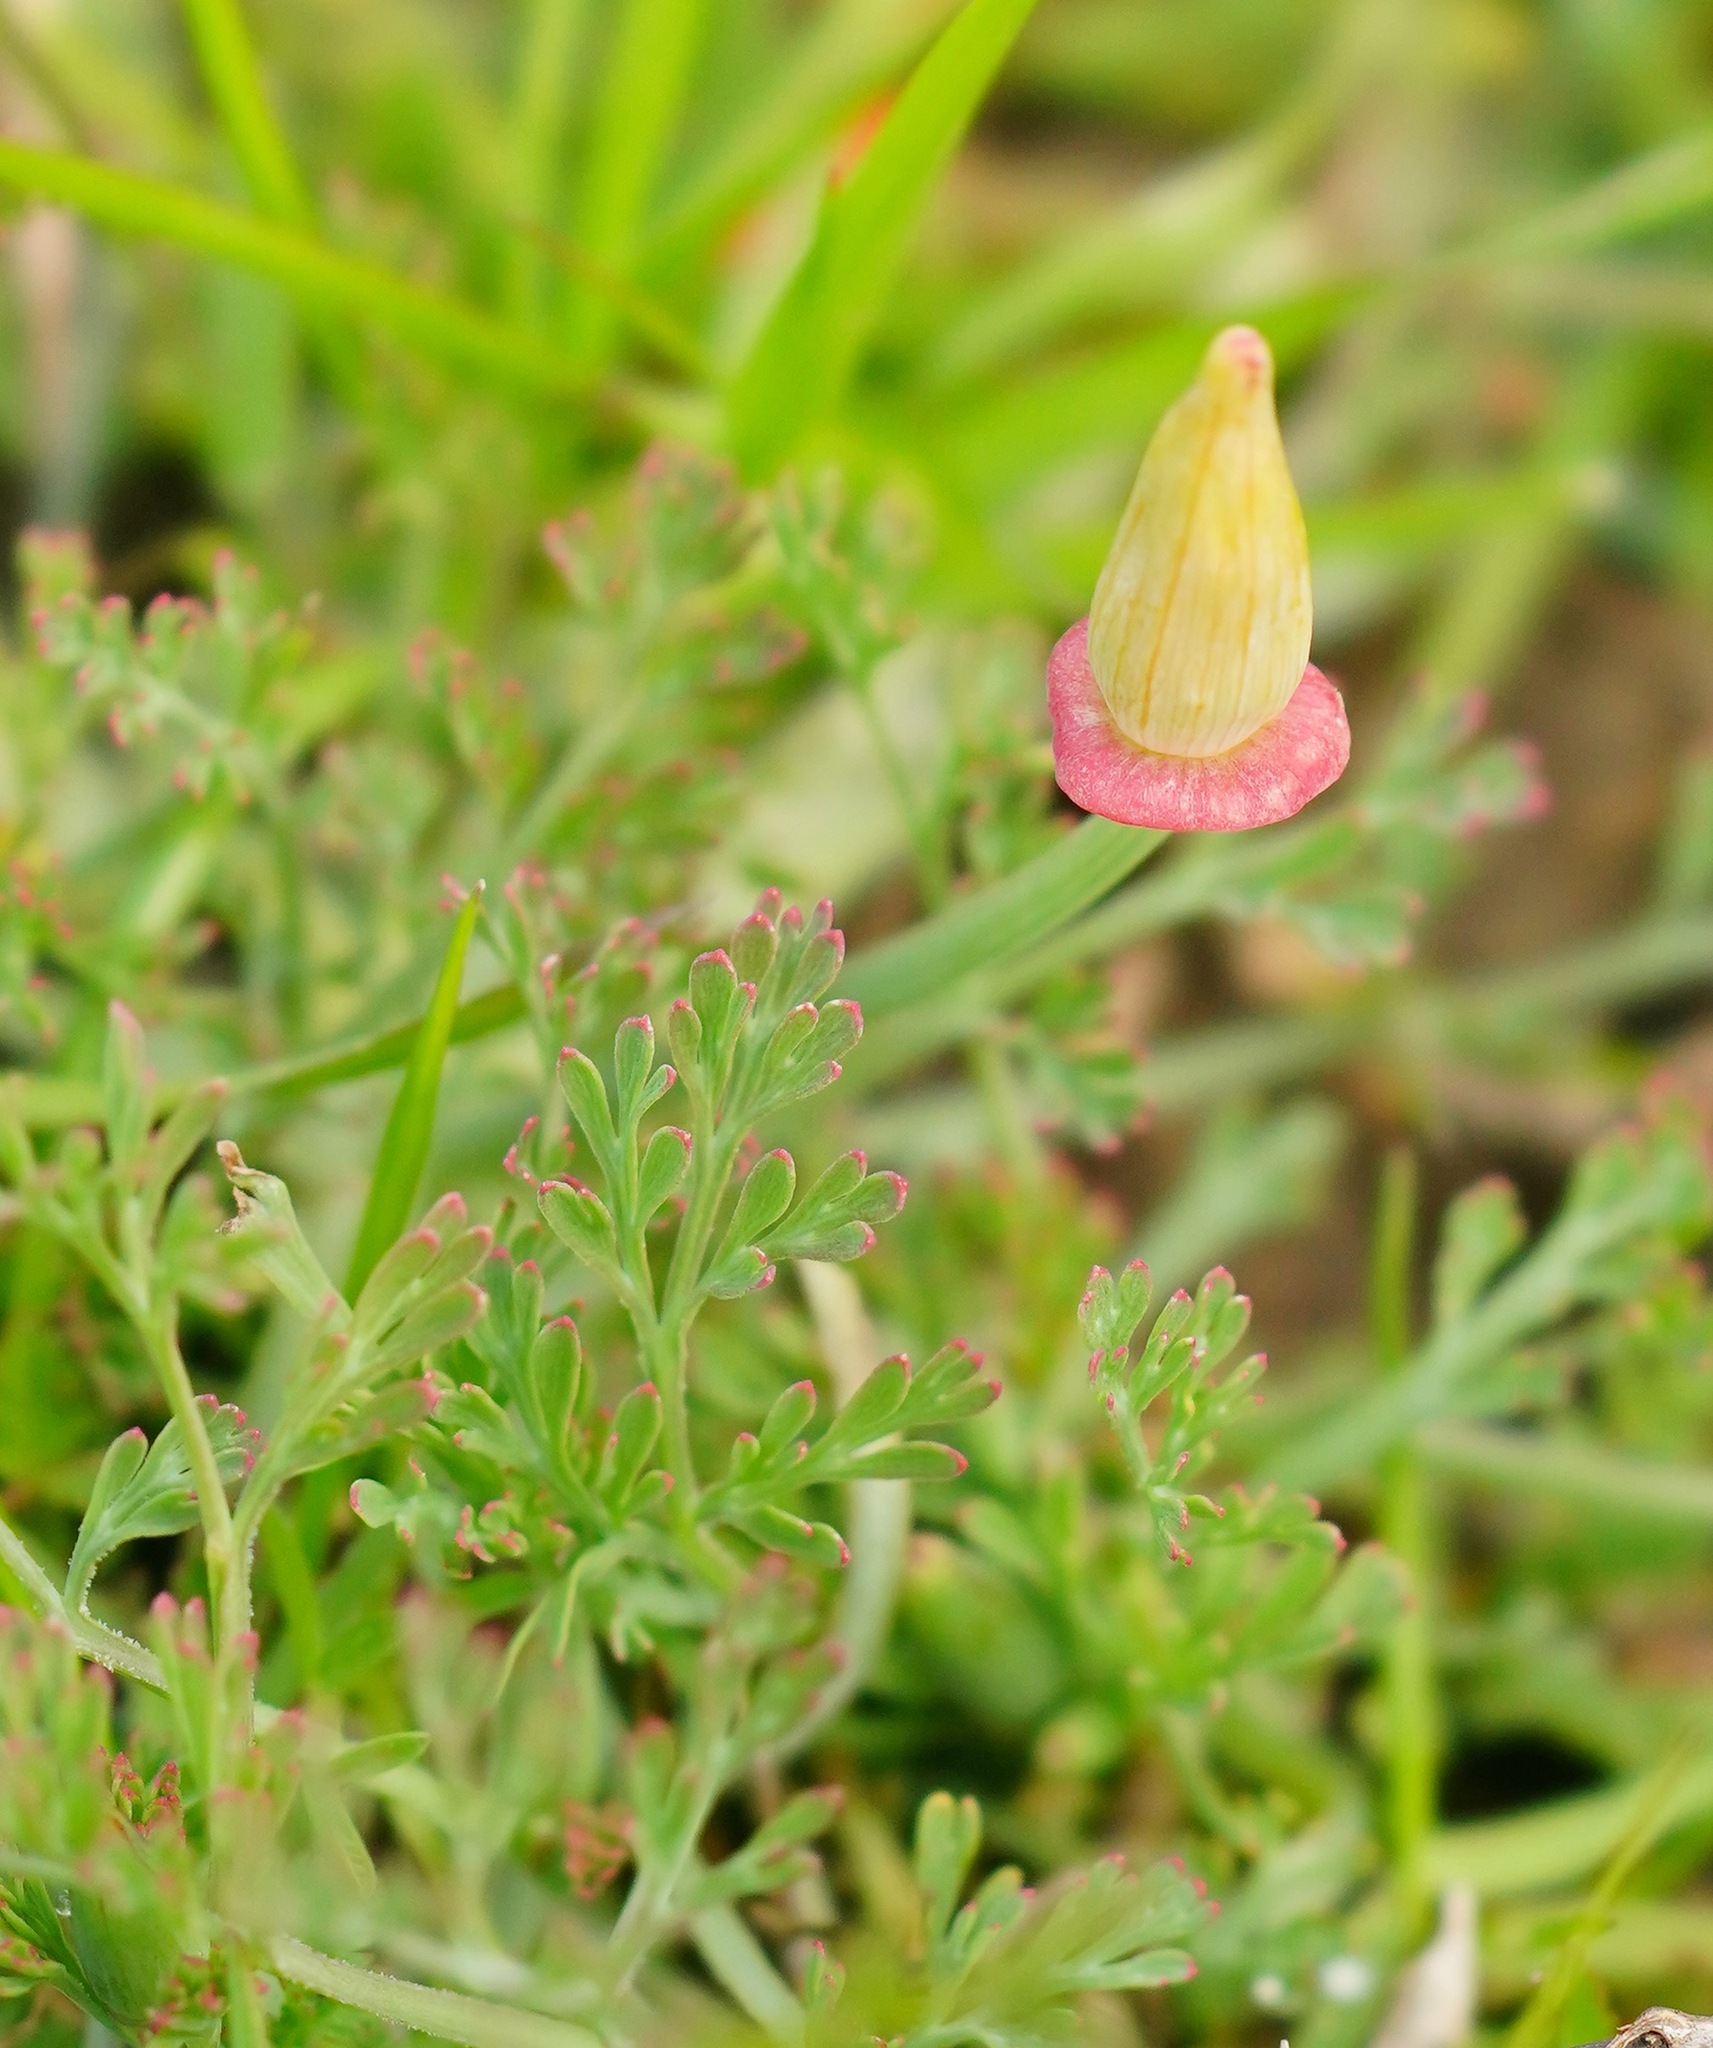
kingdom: Plantae
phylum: Tracheophyta
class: Magnoliopsida
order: Ranunculales
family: Papaveraceae
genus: Eschscholzia
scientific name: Eschscholzia californica
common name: California poppy
